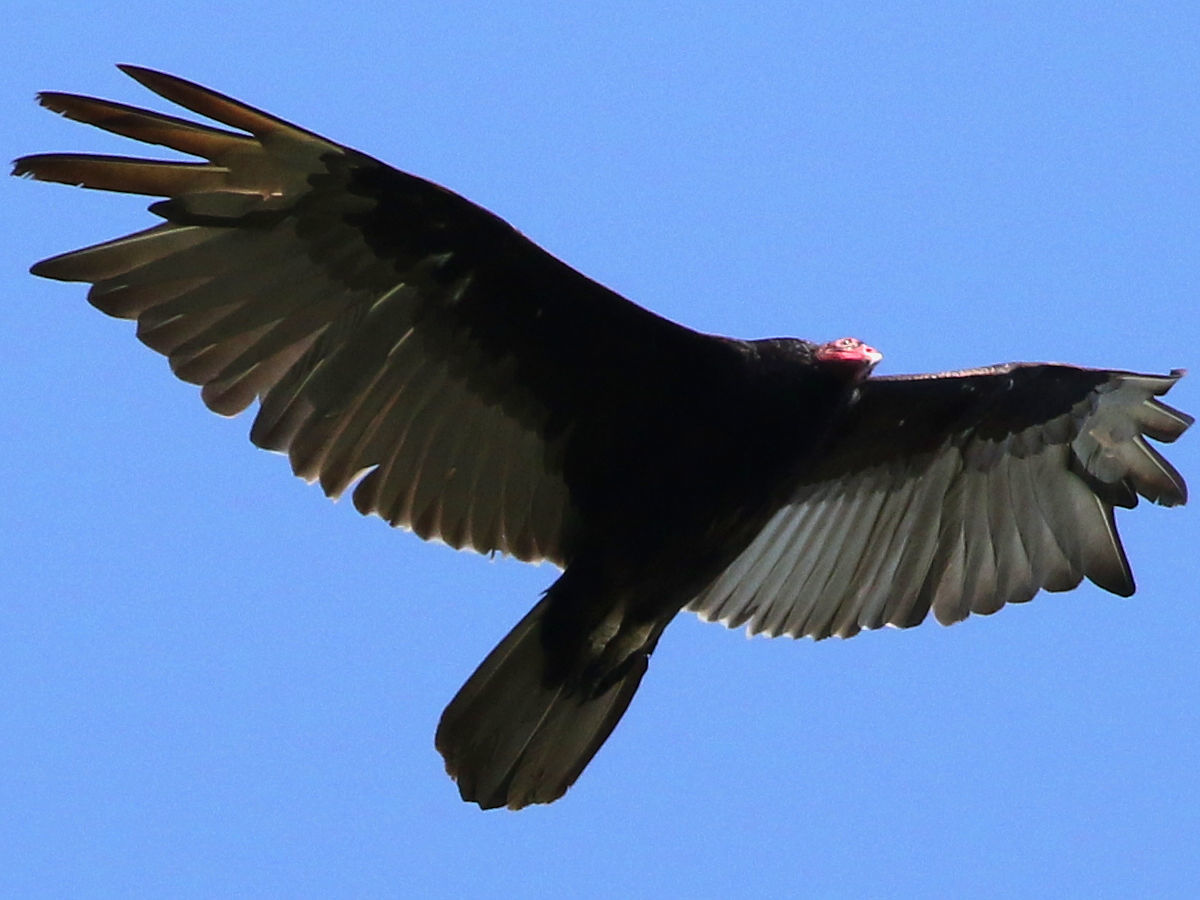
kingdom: Animalia
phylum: Chordata
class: Aves
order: Accipitriformes
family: Cathartidae
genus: Cathartes
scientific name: Cathartes aura
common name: Turkey vulture
